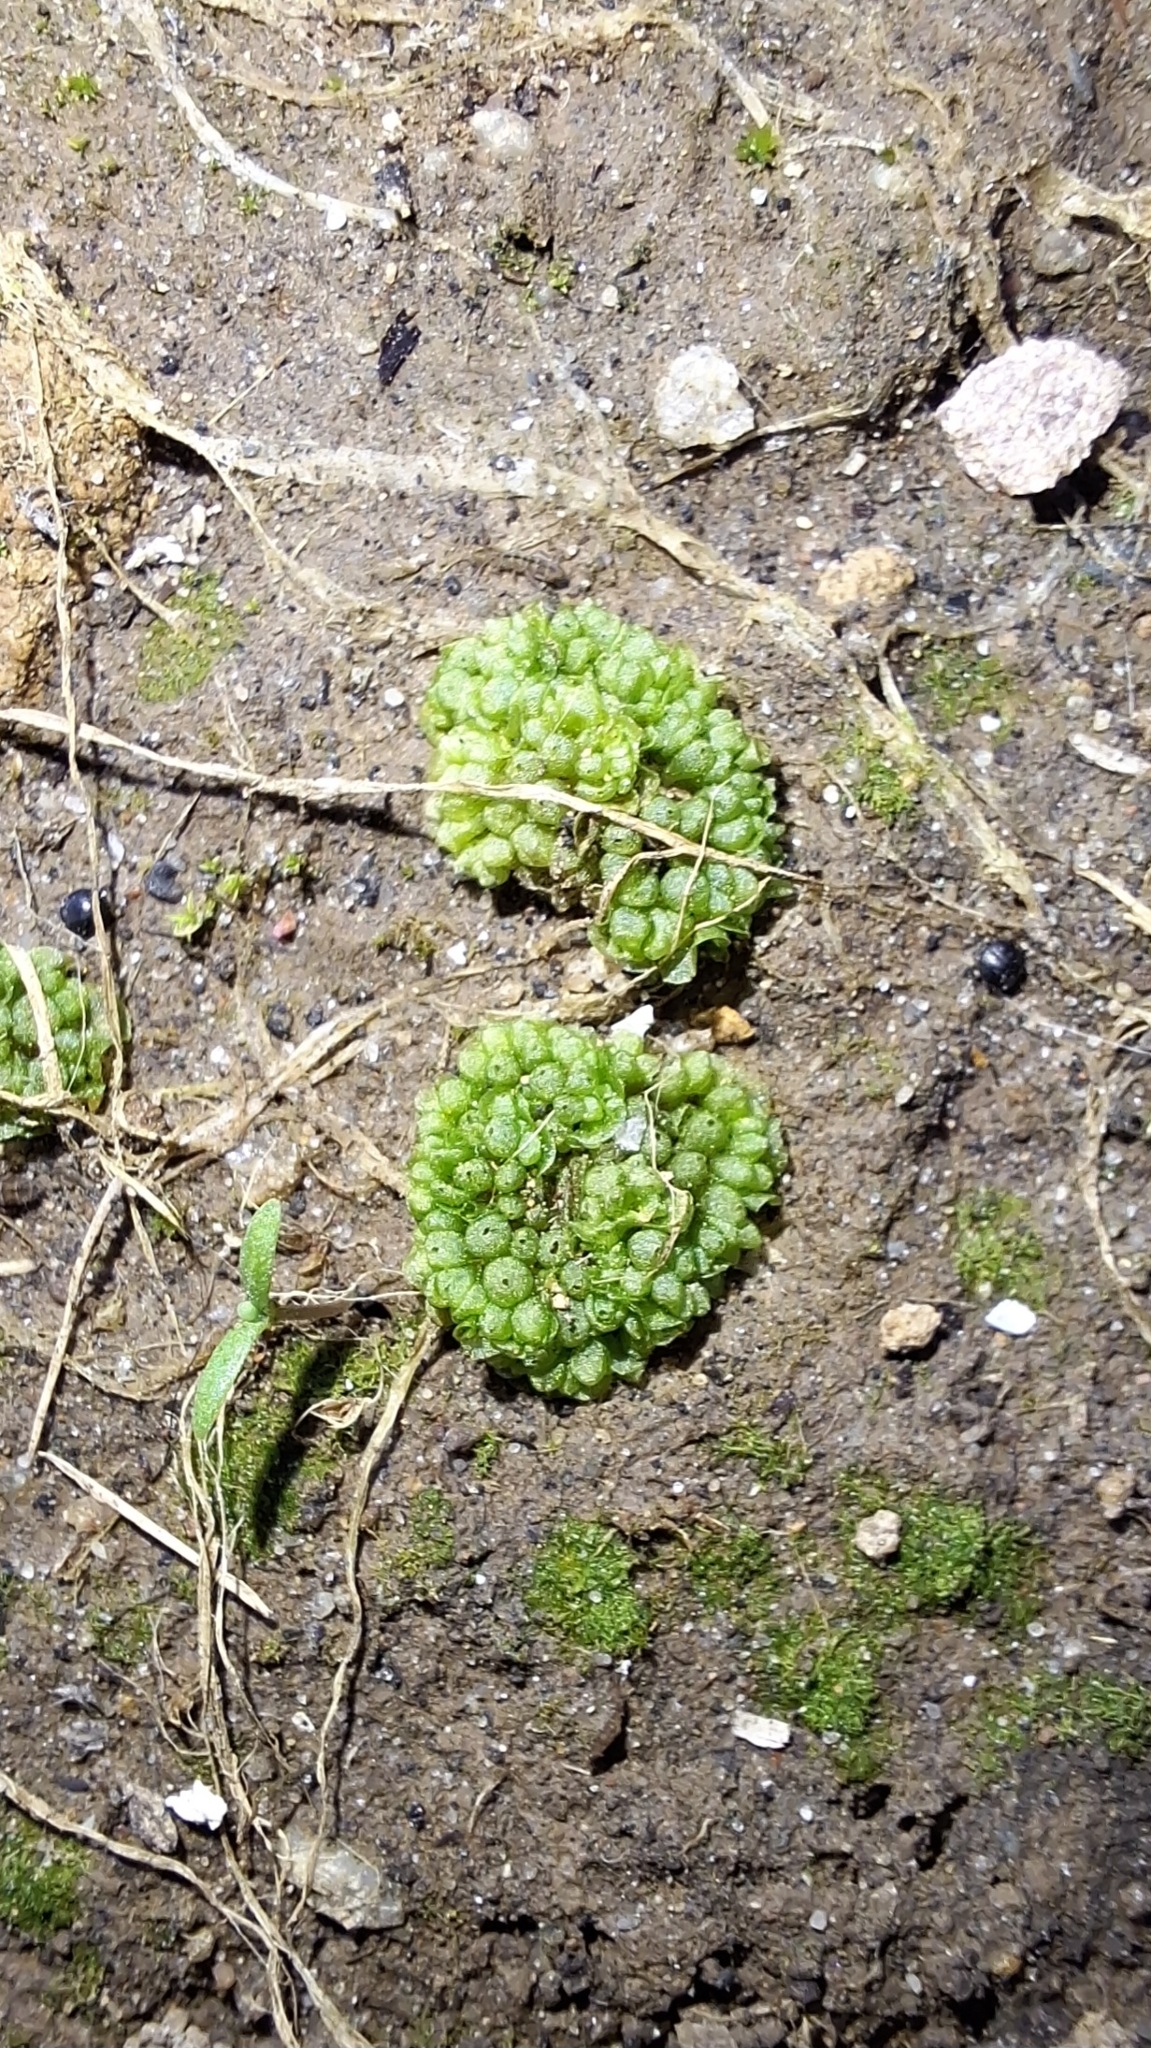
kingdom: Plantae
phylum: Marchantiophyta
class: Marchantiopsida
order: Sphaerocarpales
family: Sphaerocarpaceae
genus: Sphaerocarpos
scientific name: Sphaerocarpos texanus
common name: Texas balloonwort
